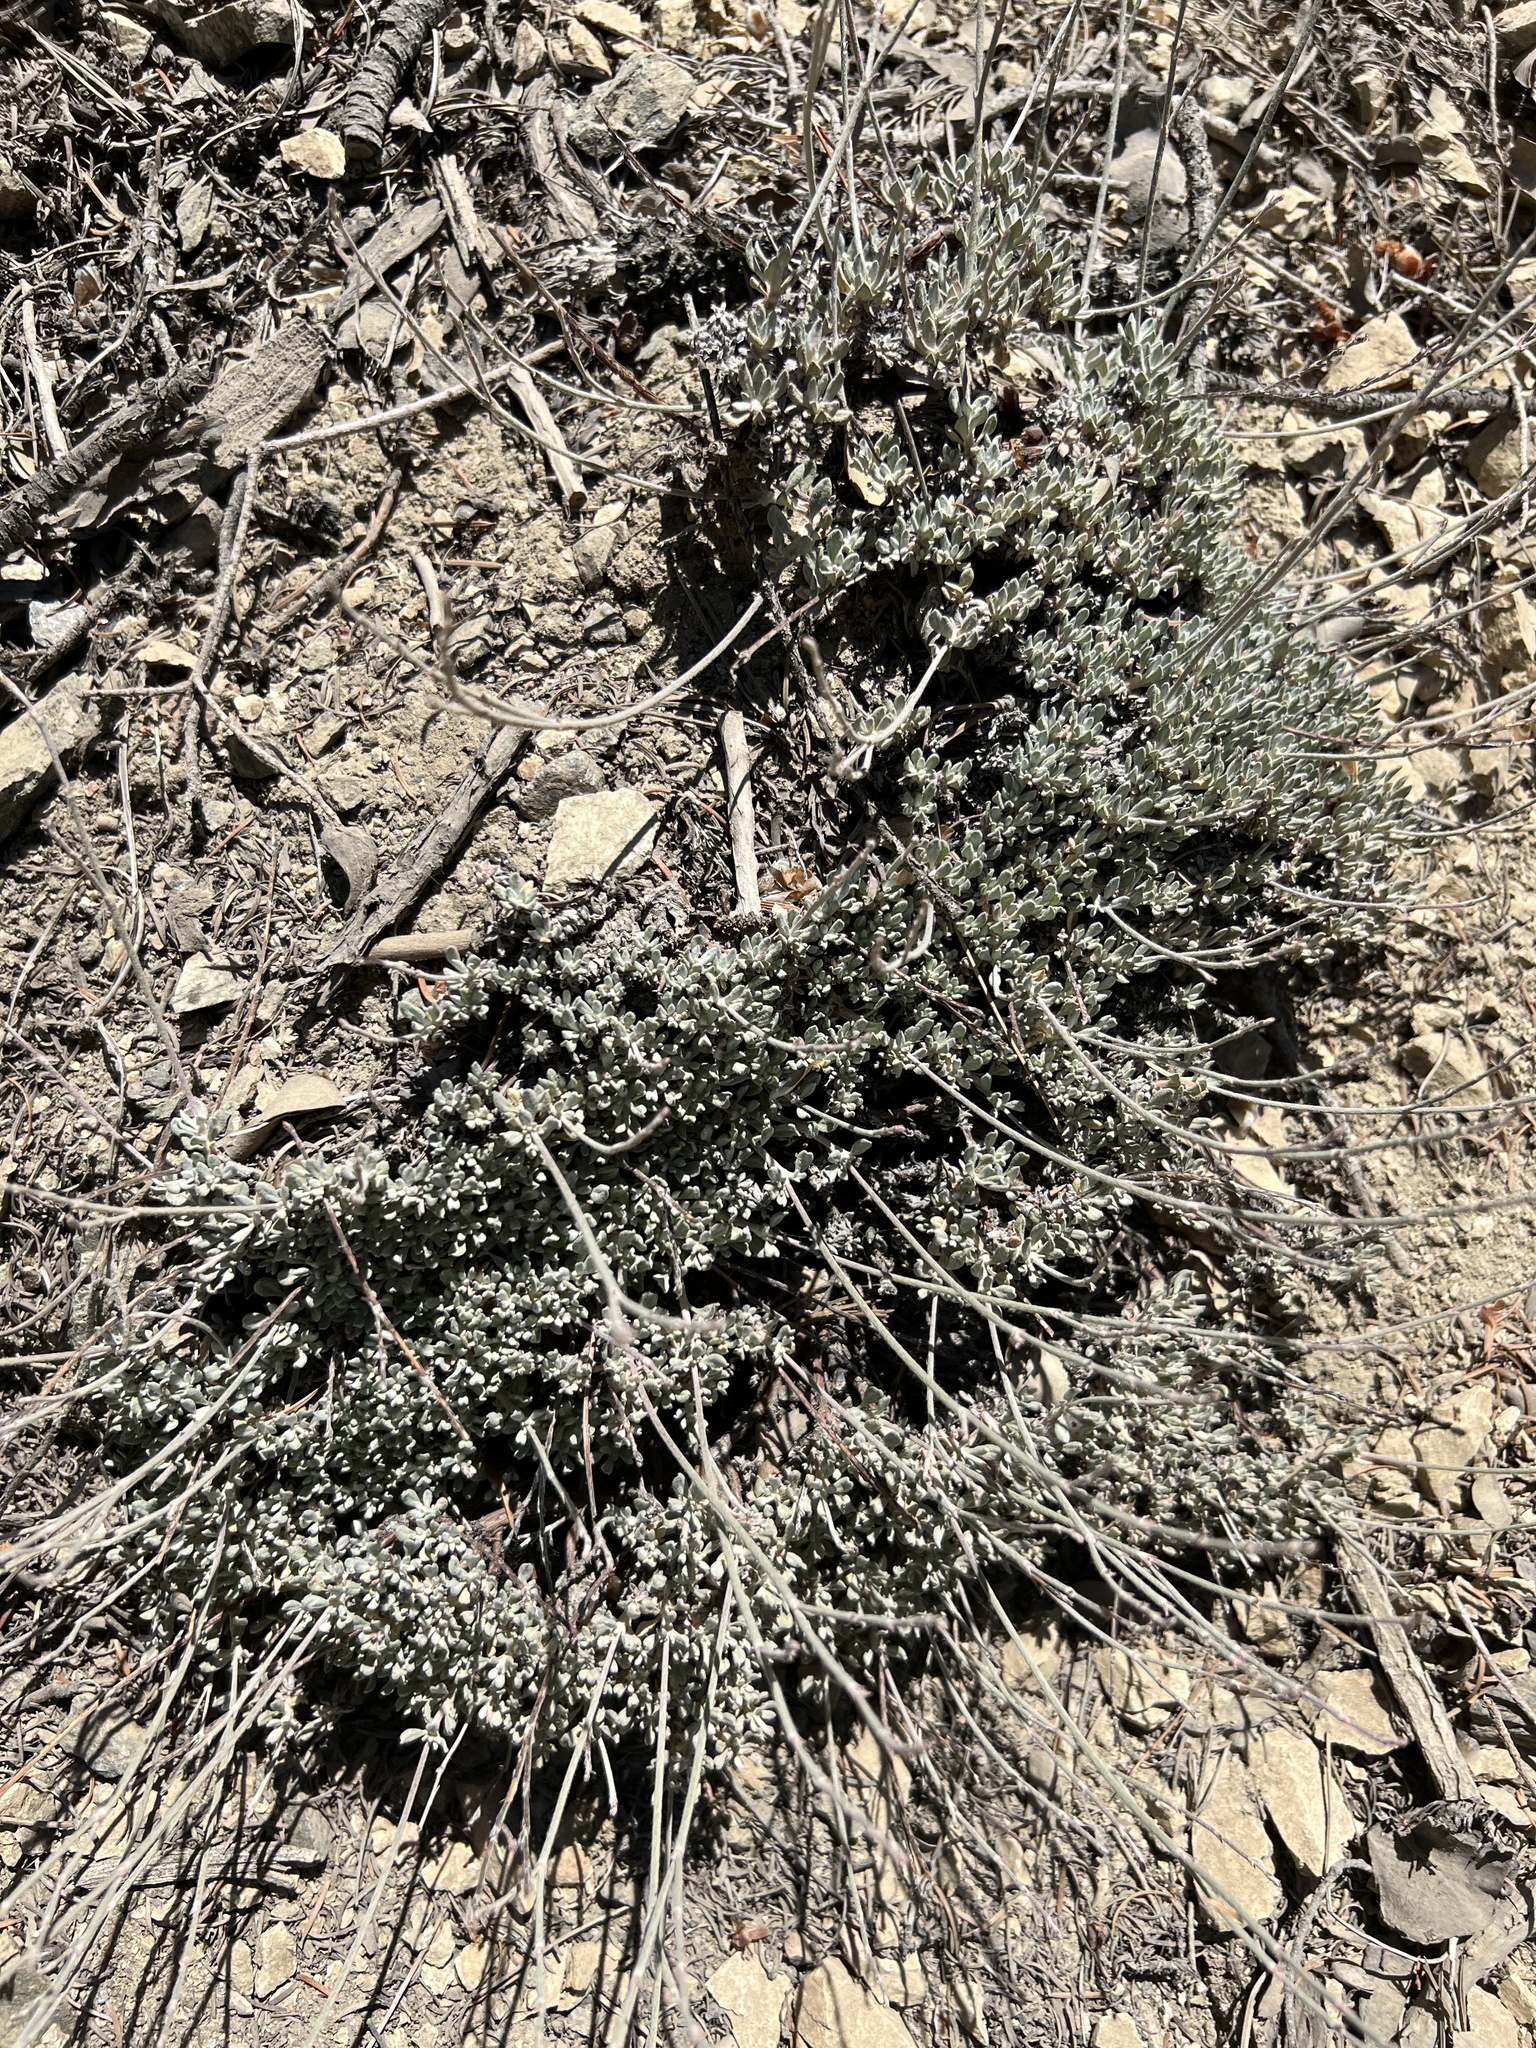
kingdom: Plantae
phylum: Tracheophyta
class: Magnoliopsida
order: Caryophyllales
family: Polygonaceae
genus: Eriogonum
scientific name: Eriogonum wrightii
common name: Bastard-sage
